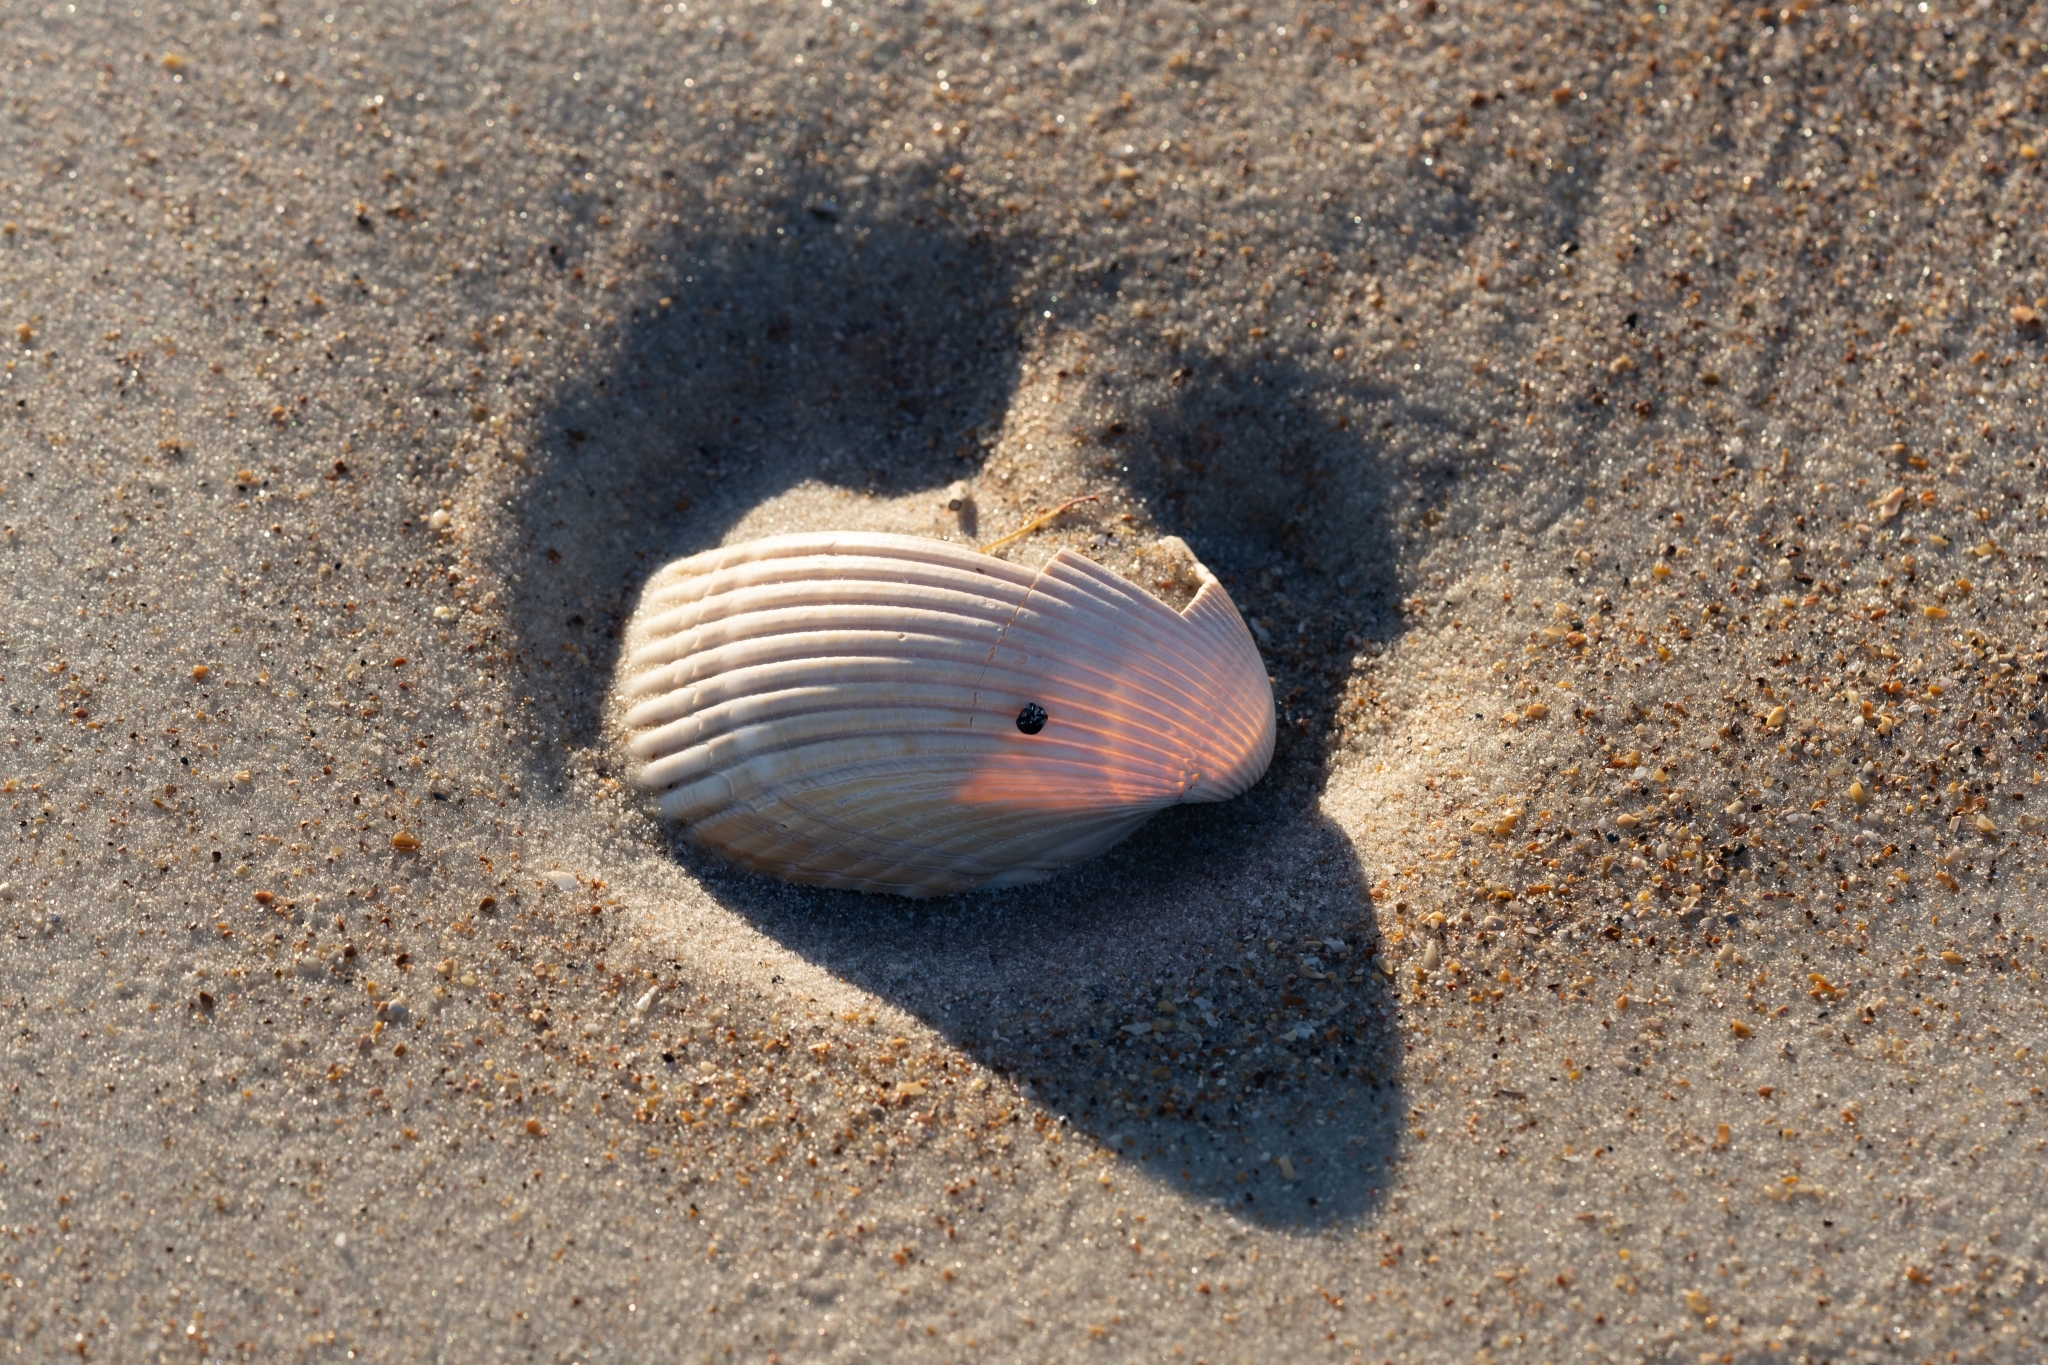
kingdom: Animalia
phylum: Mollusca
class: Bivalvia
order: Cardiida
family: Cardiidae
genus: Dinocardium
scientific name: Dinocardium robustum
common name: Atlantic giant cockle
